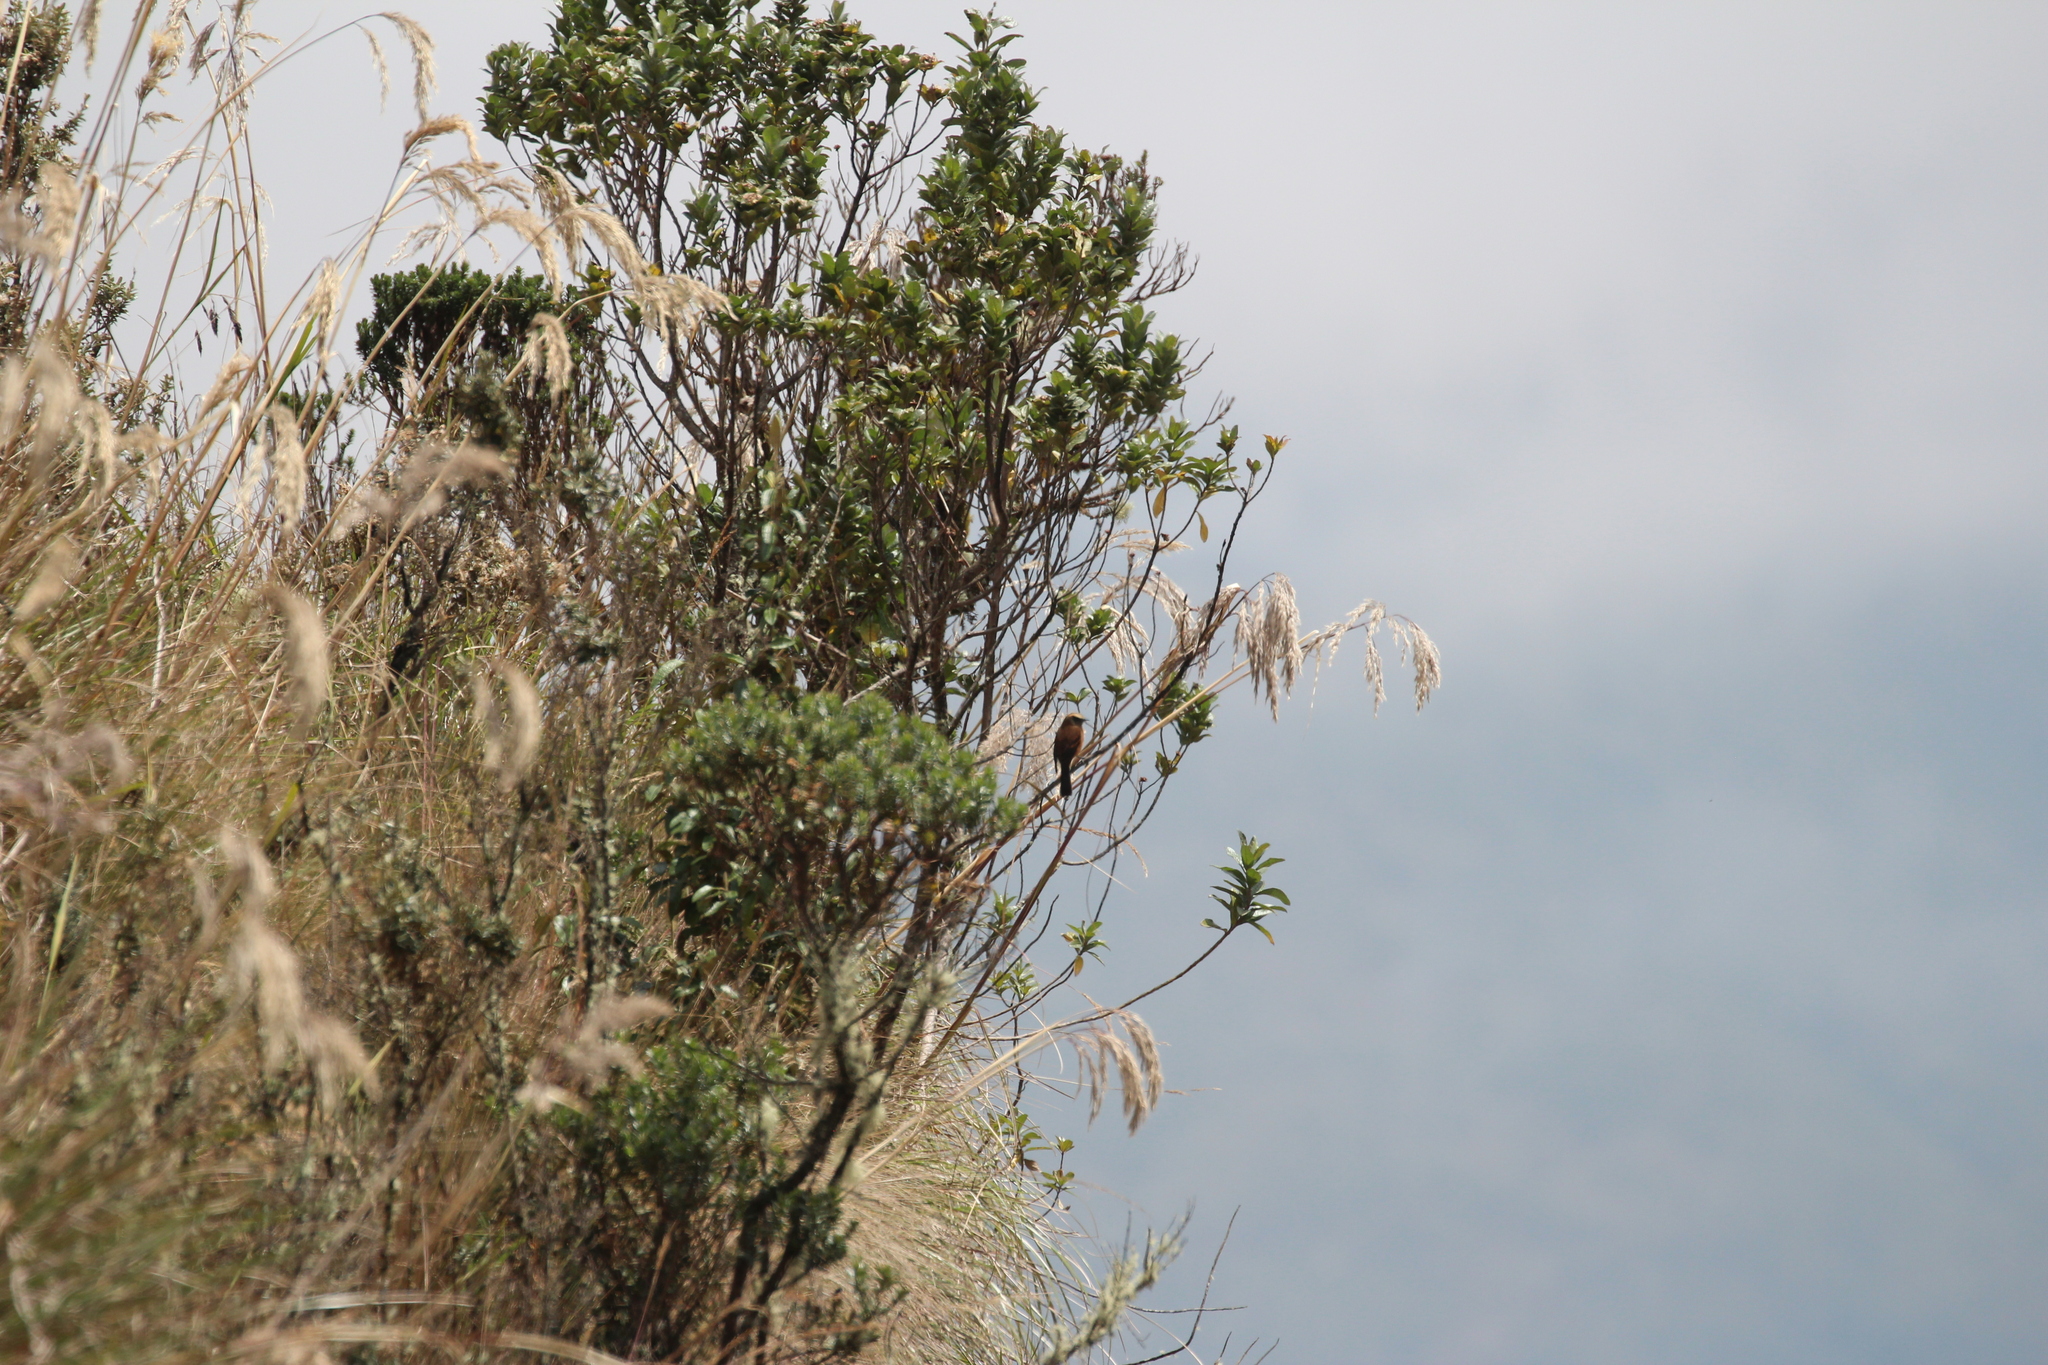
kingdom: Animalia
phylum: Chordata
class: Aves
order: Passeriformes
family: Tyrannidae
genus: Ochthoeca
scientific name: Ochthoeca fumicolor
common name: Brown-backed chat-tyrant
